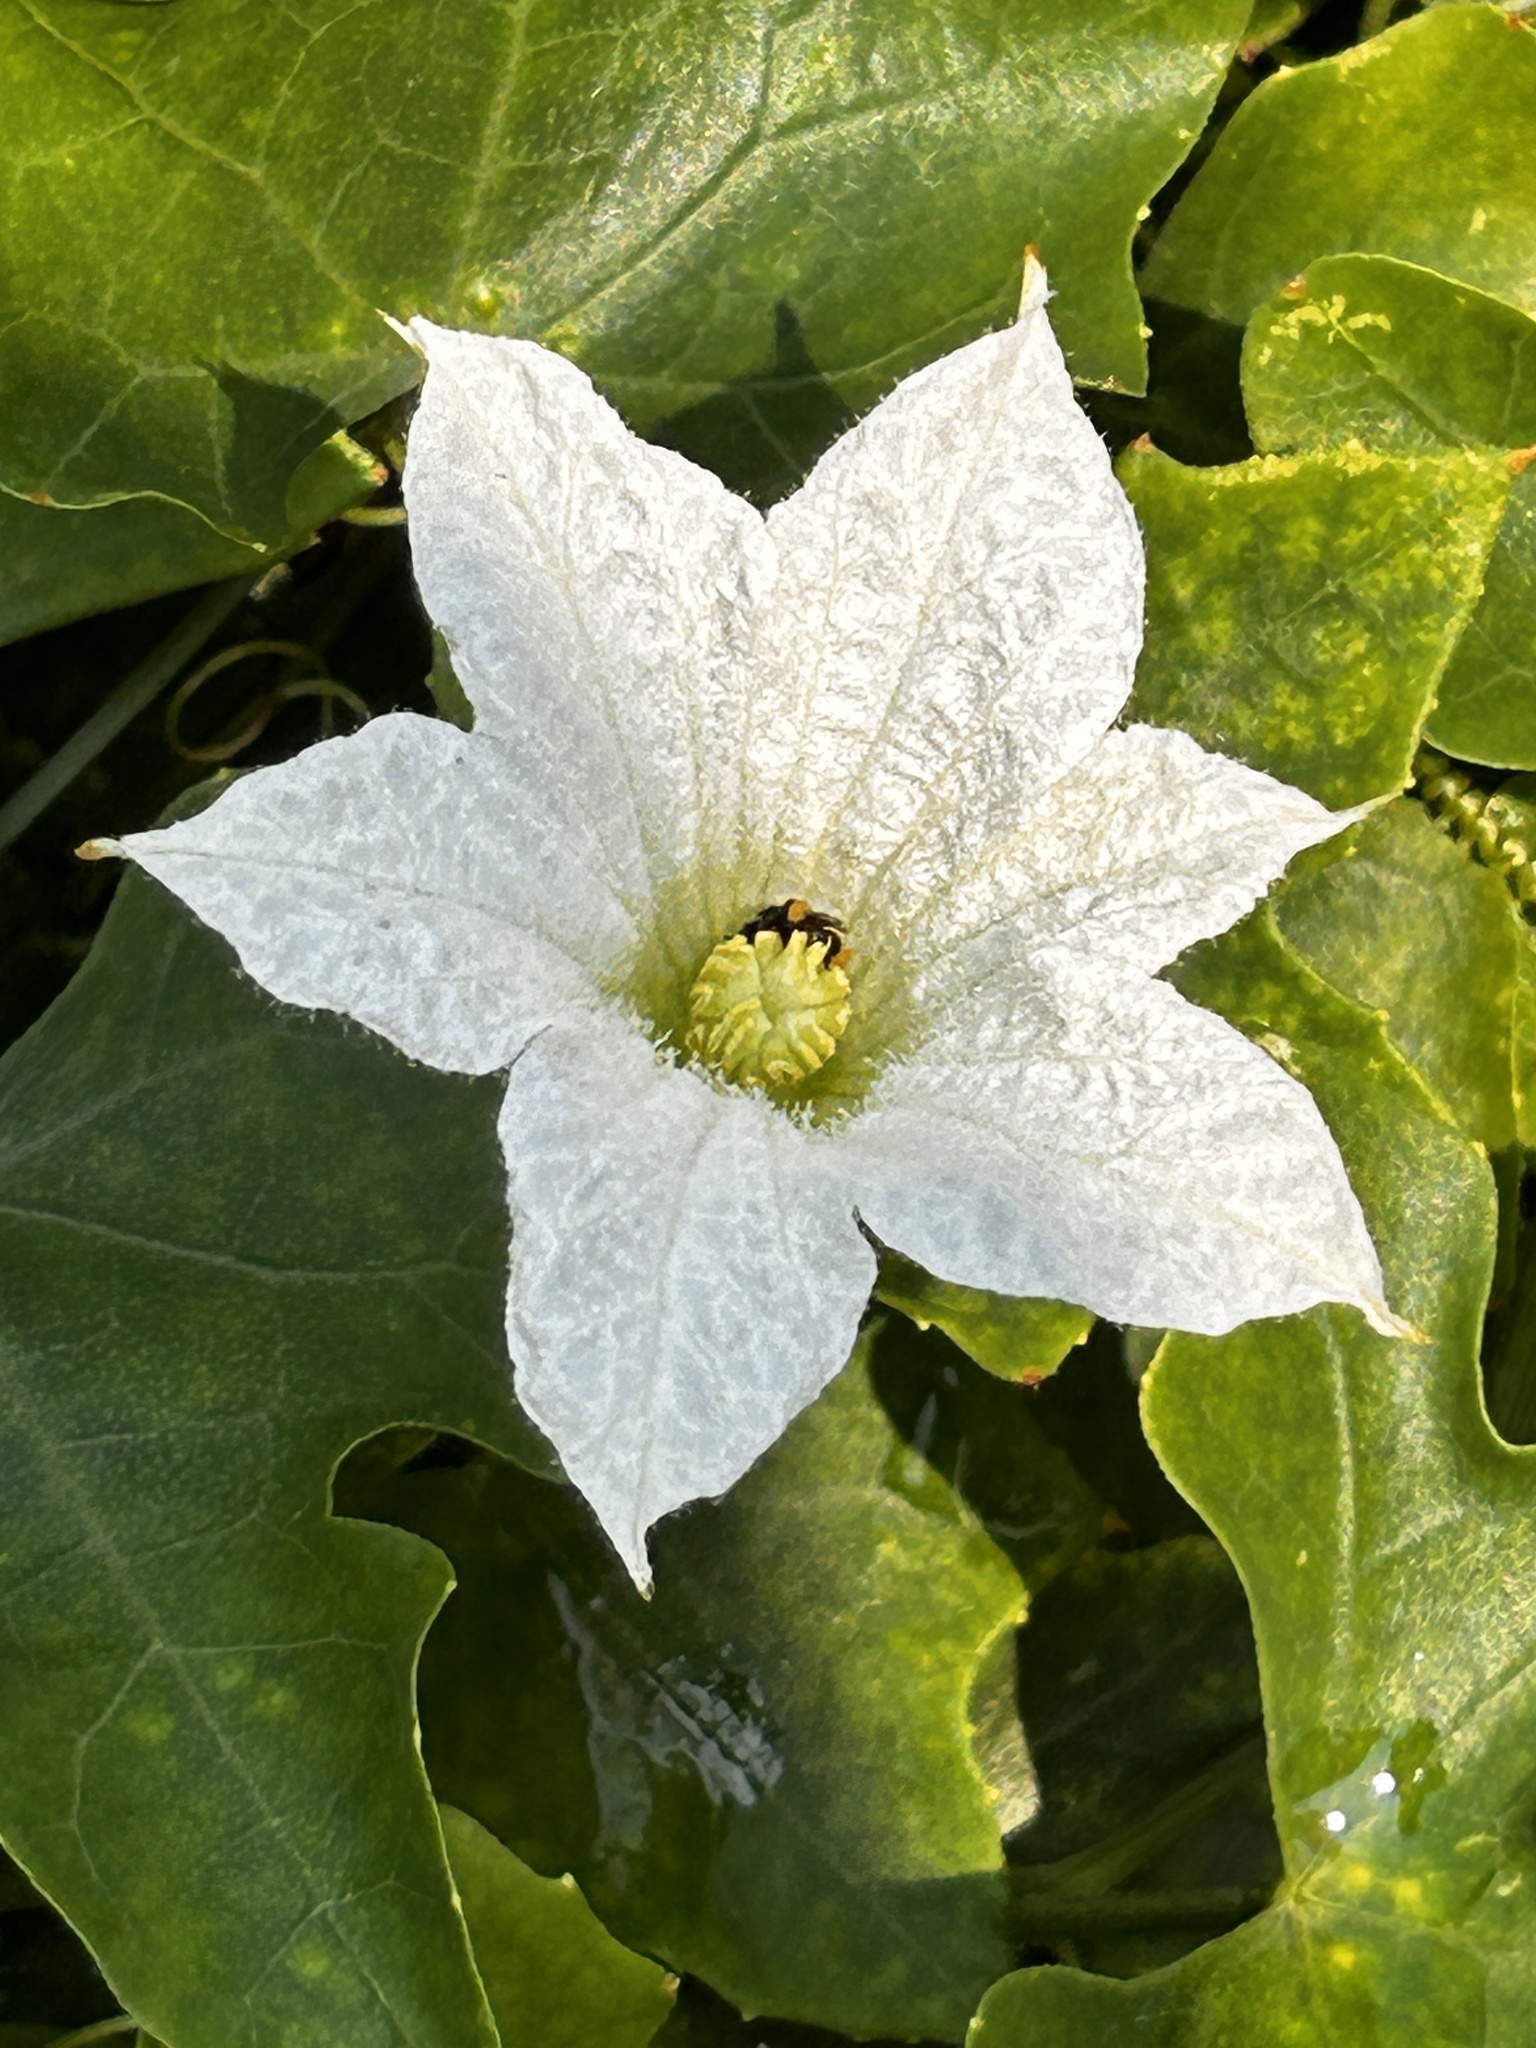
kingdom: Plantae
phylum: Tracheophyta
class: Magnoliopsida
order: Cucurbitales
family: Cucurbitaceae
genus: Coccinia
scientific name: Coccinia grandis
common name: Ivy gourd
